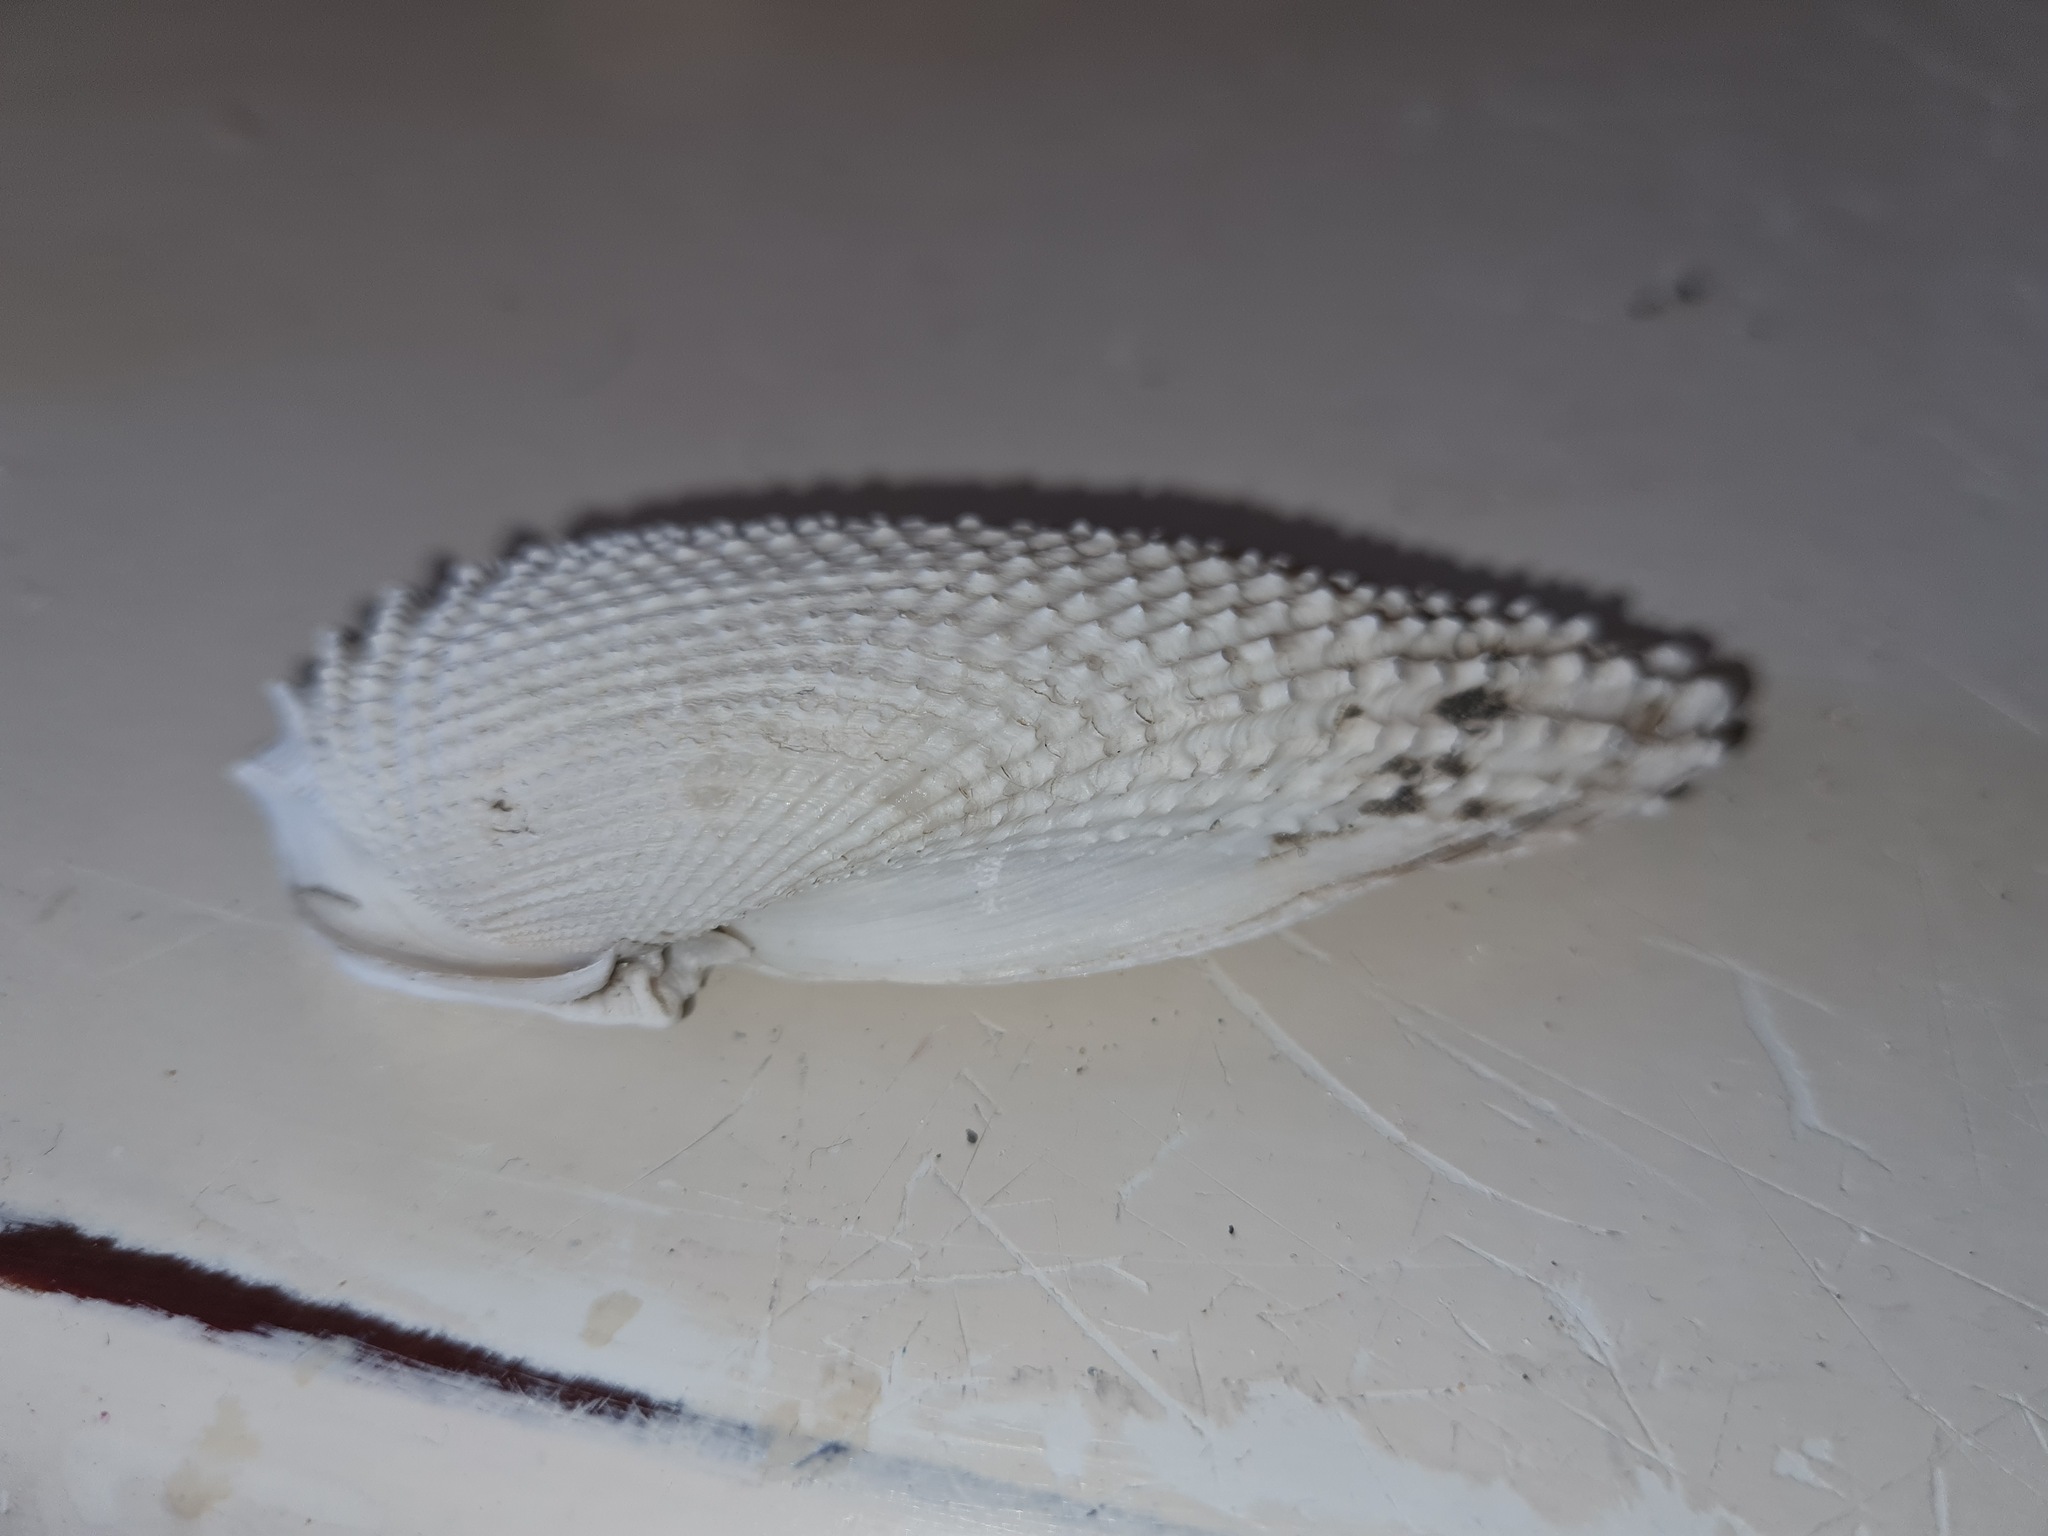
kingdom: Animalia
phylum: Mollusca
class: Bivalvia
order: Myida
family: Pholadidae
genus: Cyrtopleura
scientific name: Cyrtopleura costata
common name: Angel wing
